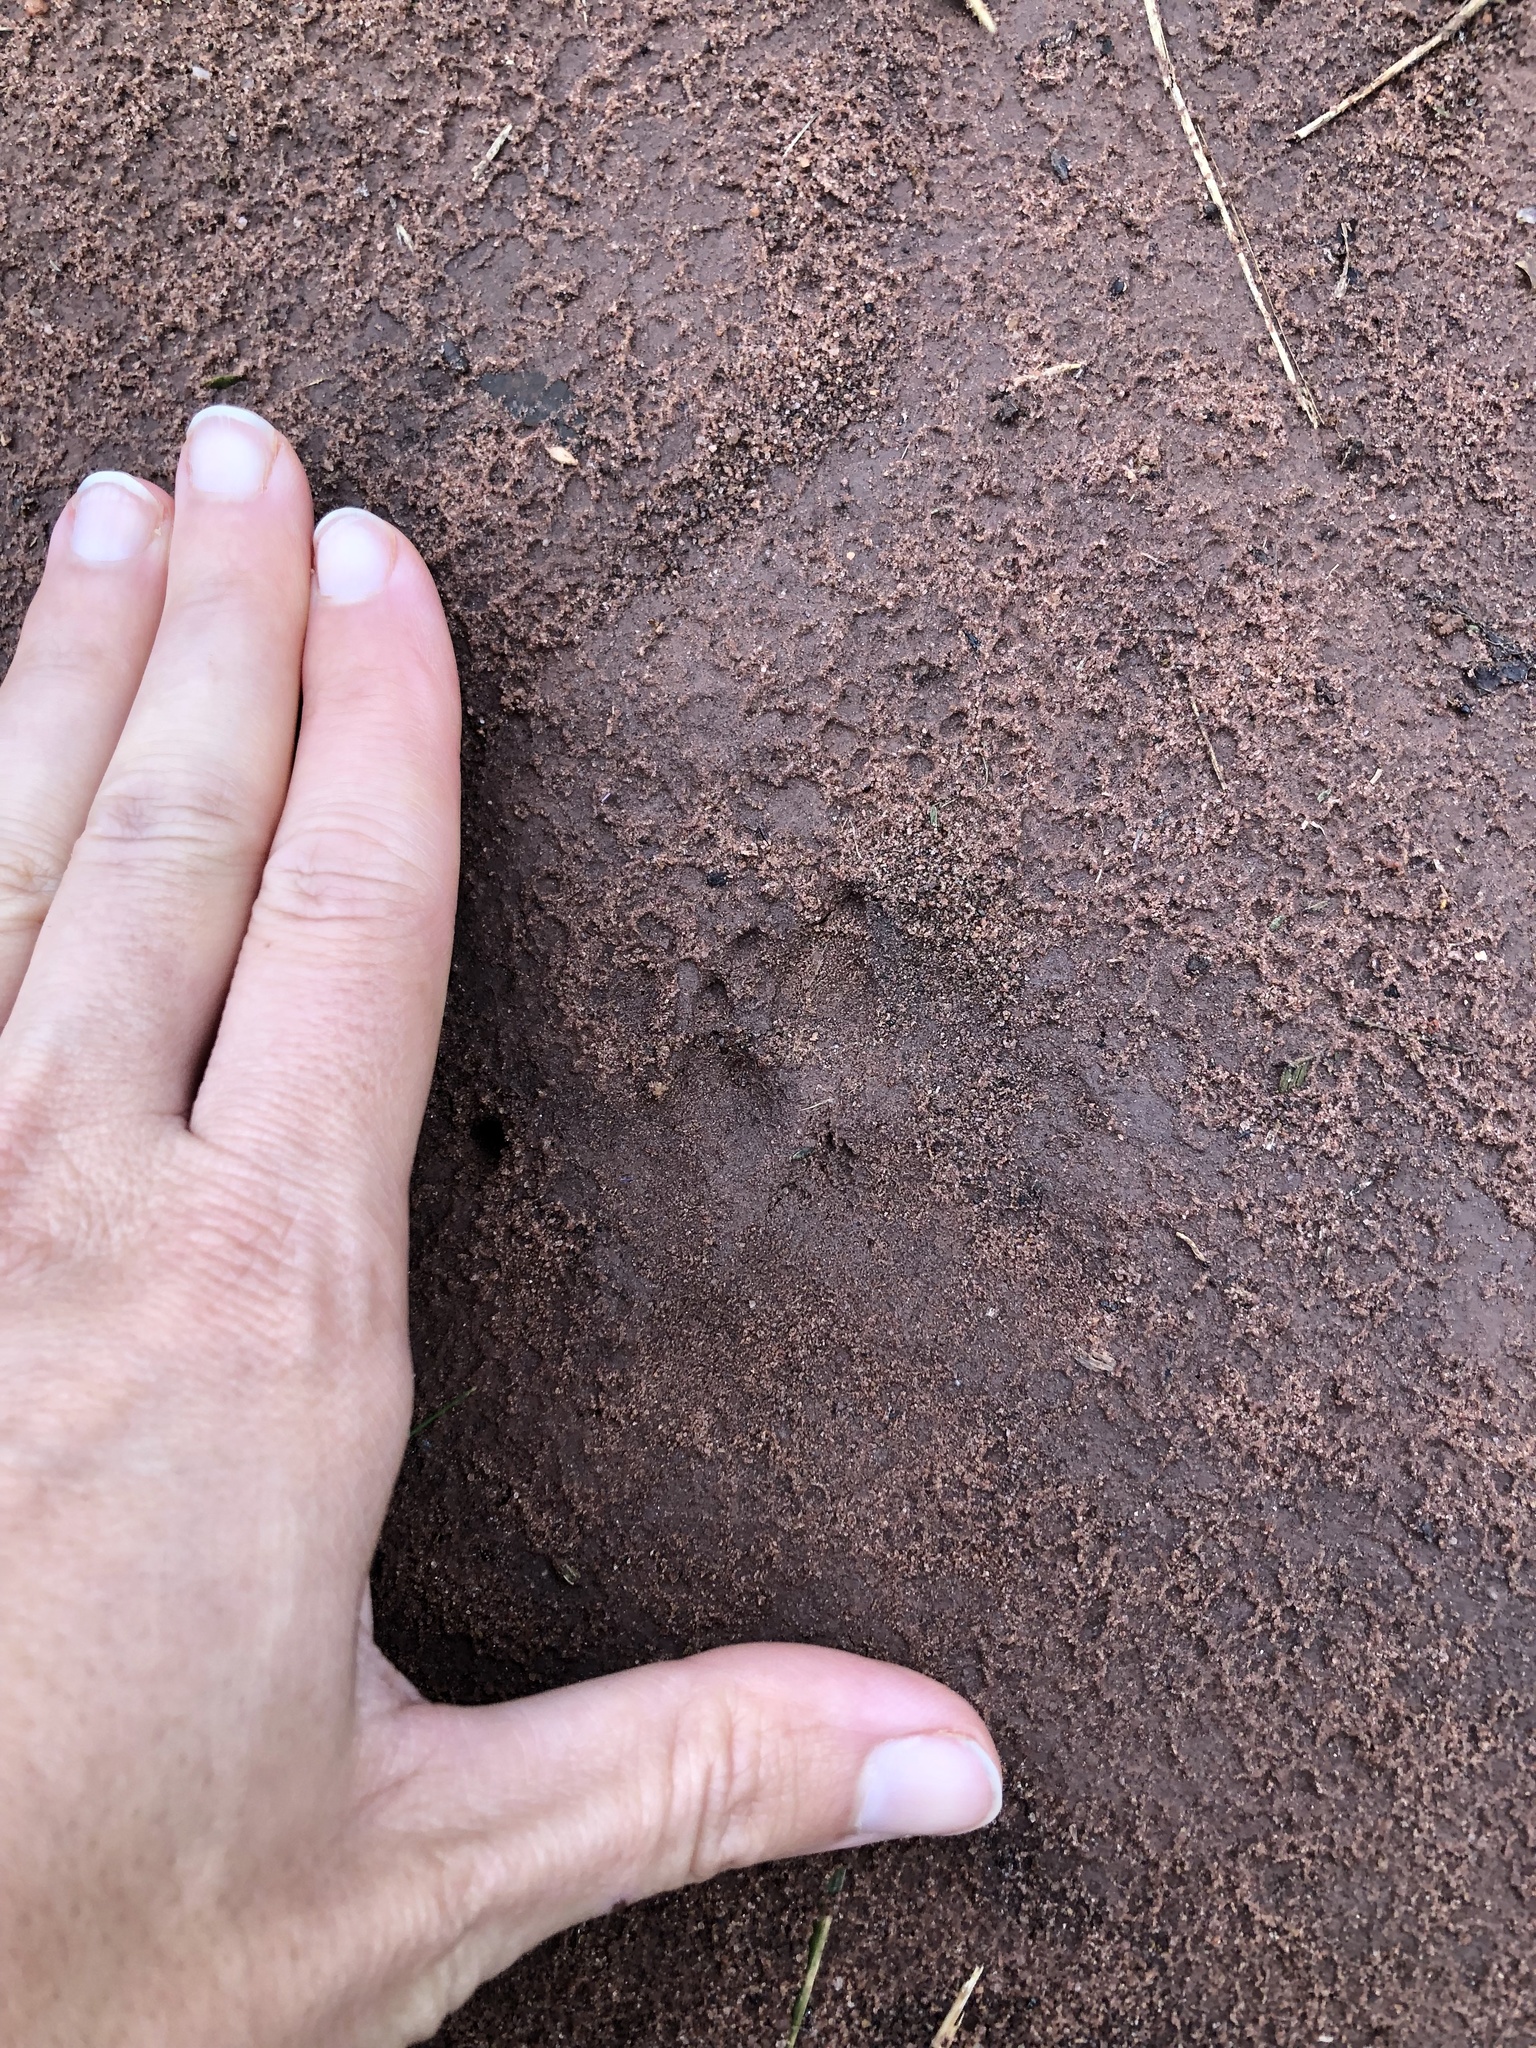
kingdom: Animalia
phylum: Chordata
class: Mammalia
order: Rodentia
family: Hystricidae
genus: Hystrix
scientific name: Hystrix africaeaustralis
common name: Cape porcupine
